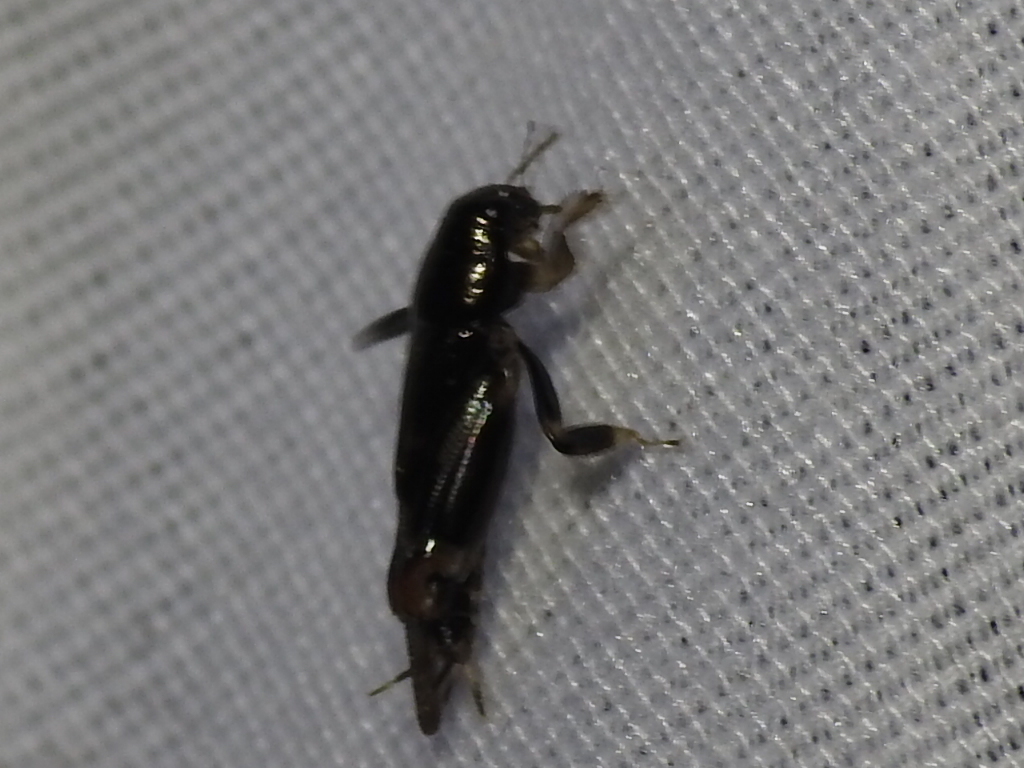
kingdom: Animalia
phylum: Arthropoda
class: Insecta
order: Orthoptera
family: Tridactylidae
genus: Neotridactylus
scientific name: Neotridactylus apicialis
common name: Larger pygmy locust
